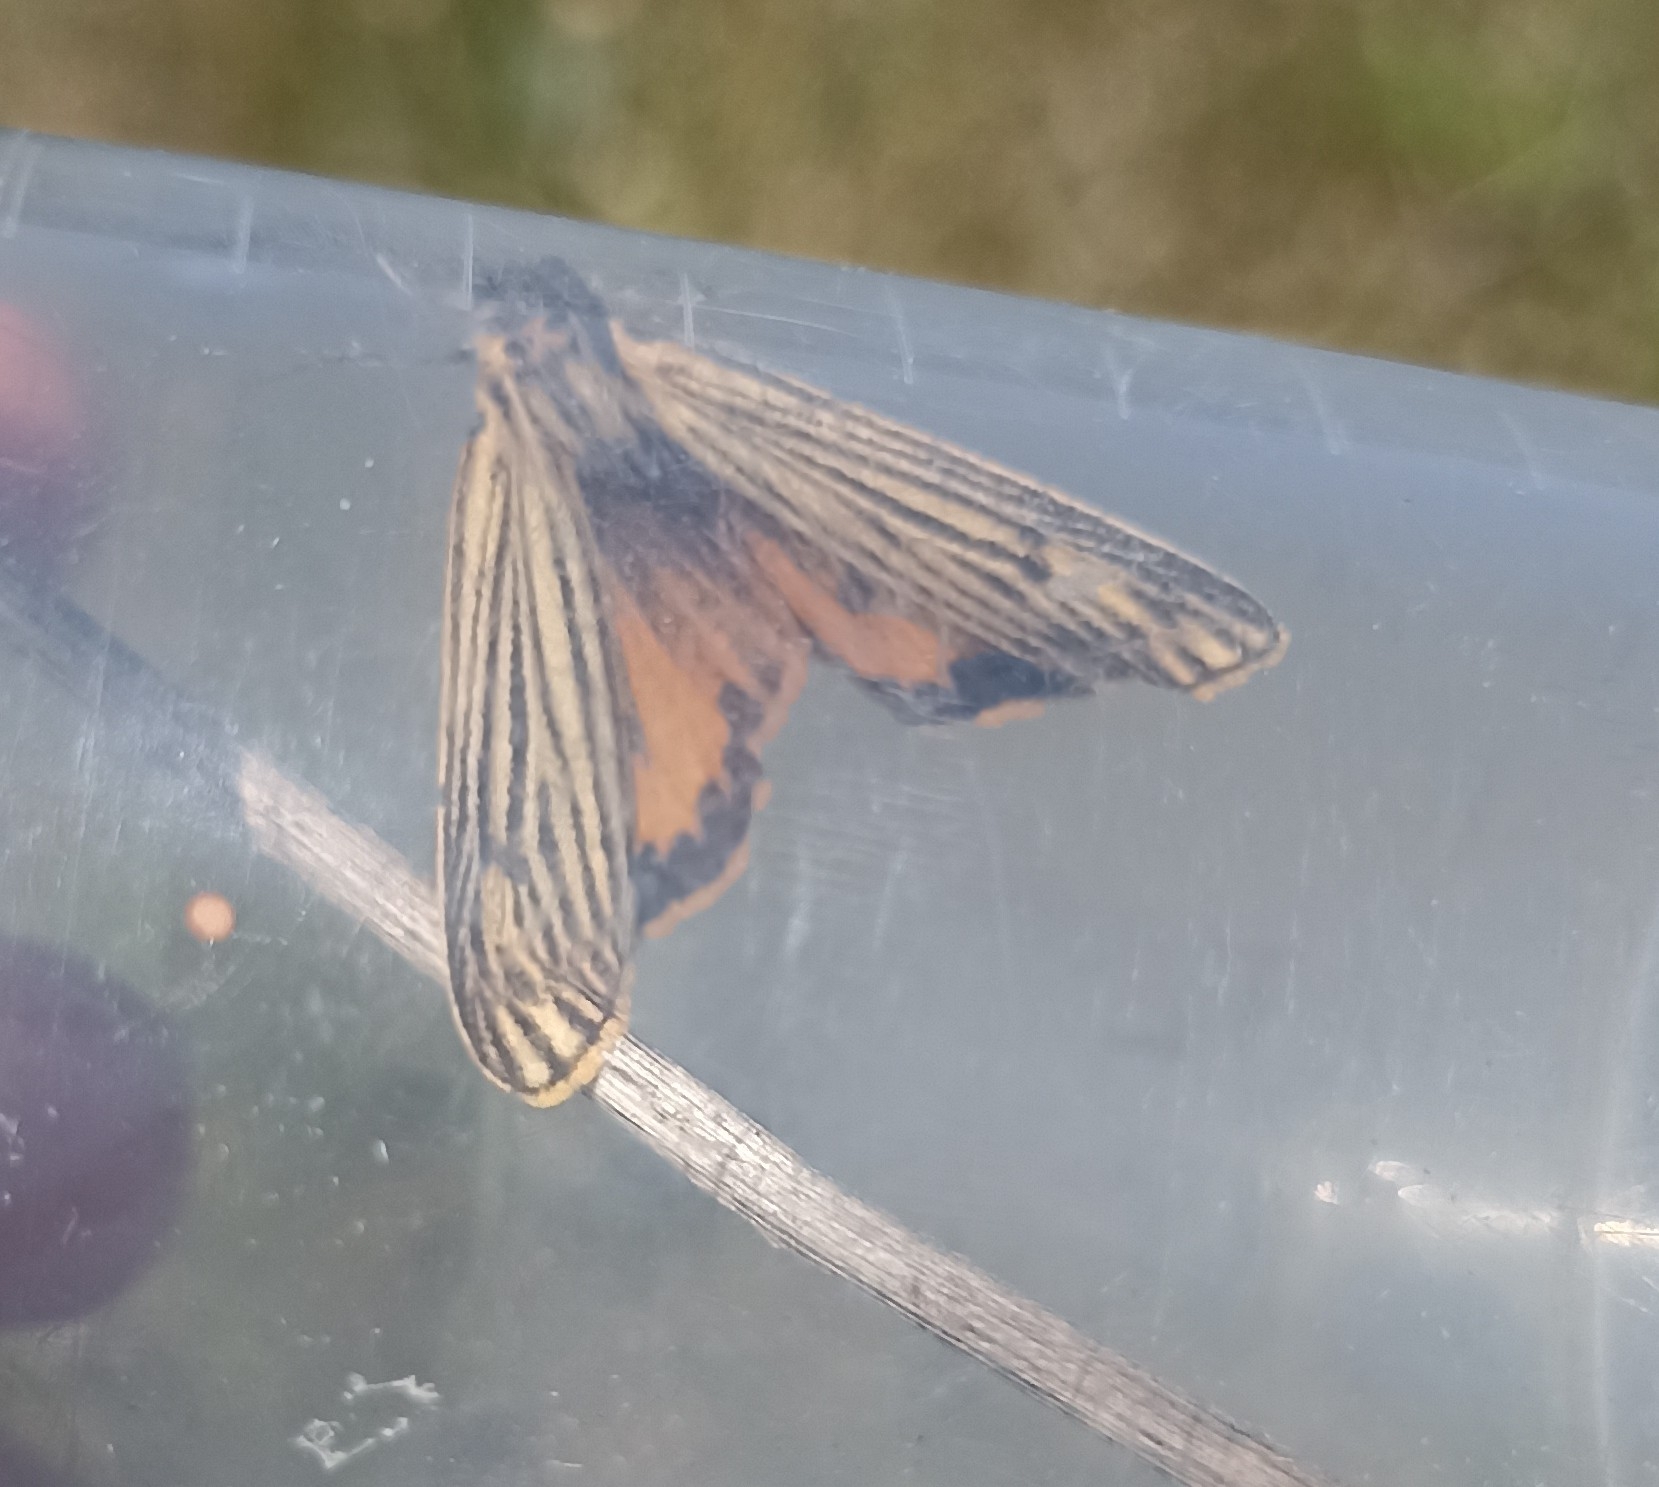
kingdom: Animalia
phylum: Arthropoda
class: Insecta
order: Lepidoptera
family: Erebidae
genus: Coscinia
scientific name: Coscinia Spiris striata
